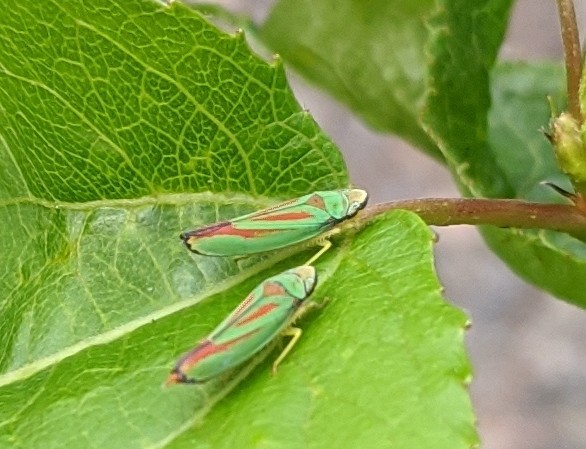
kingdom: Animalia
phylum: Arthropoda
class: Insecta
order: Hemiptera
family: Cicadellidae
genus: Graphocephala
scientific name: Graphocephala fennahi
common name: Rhododendron leafhopper
